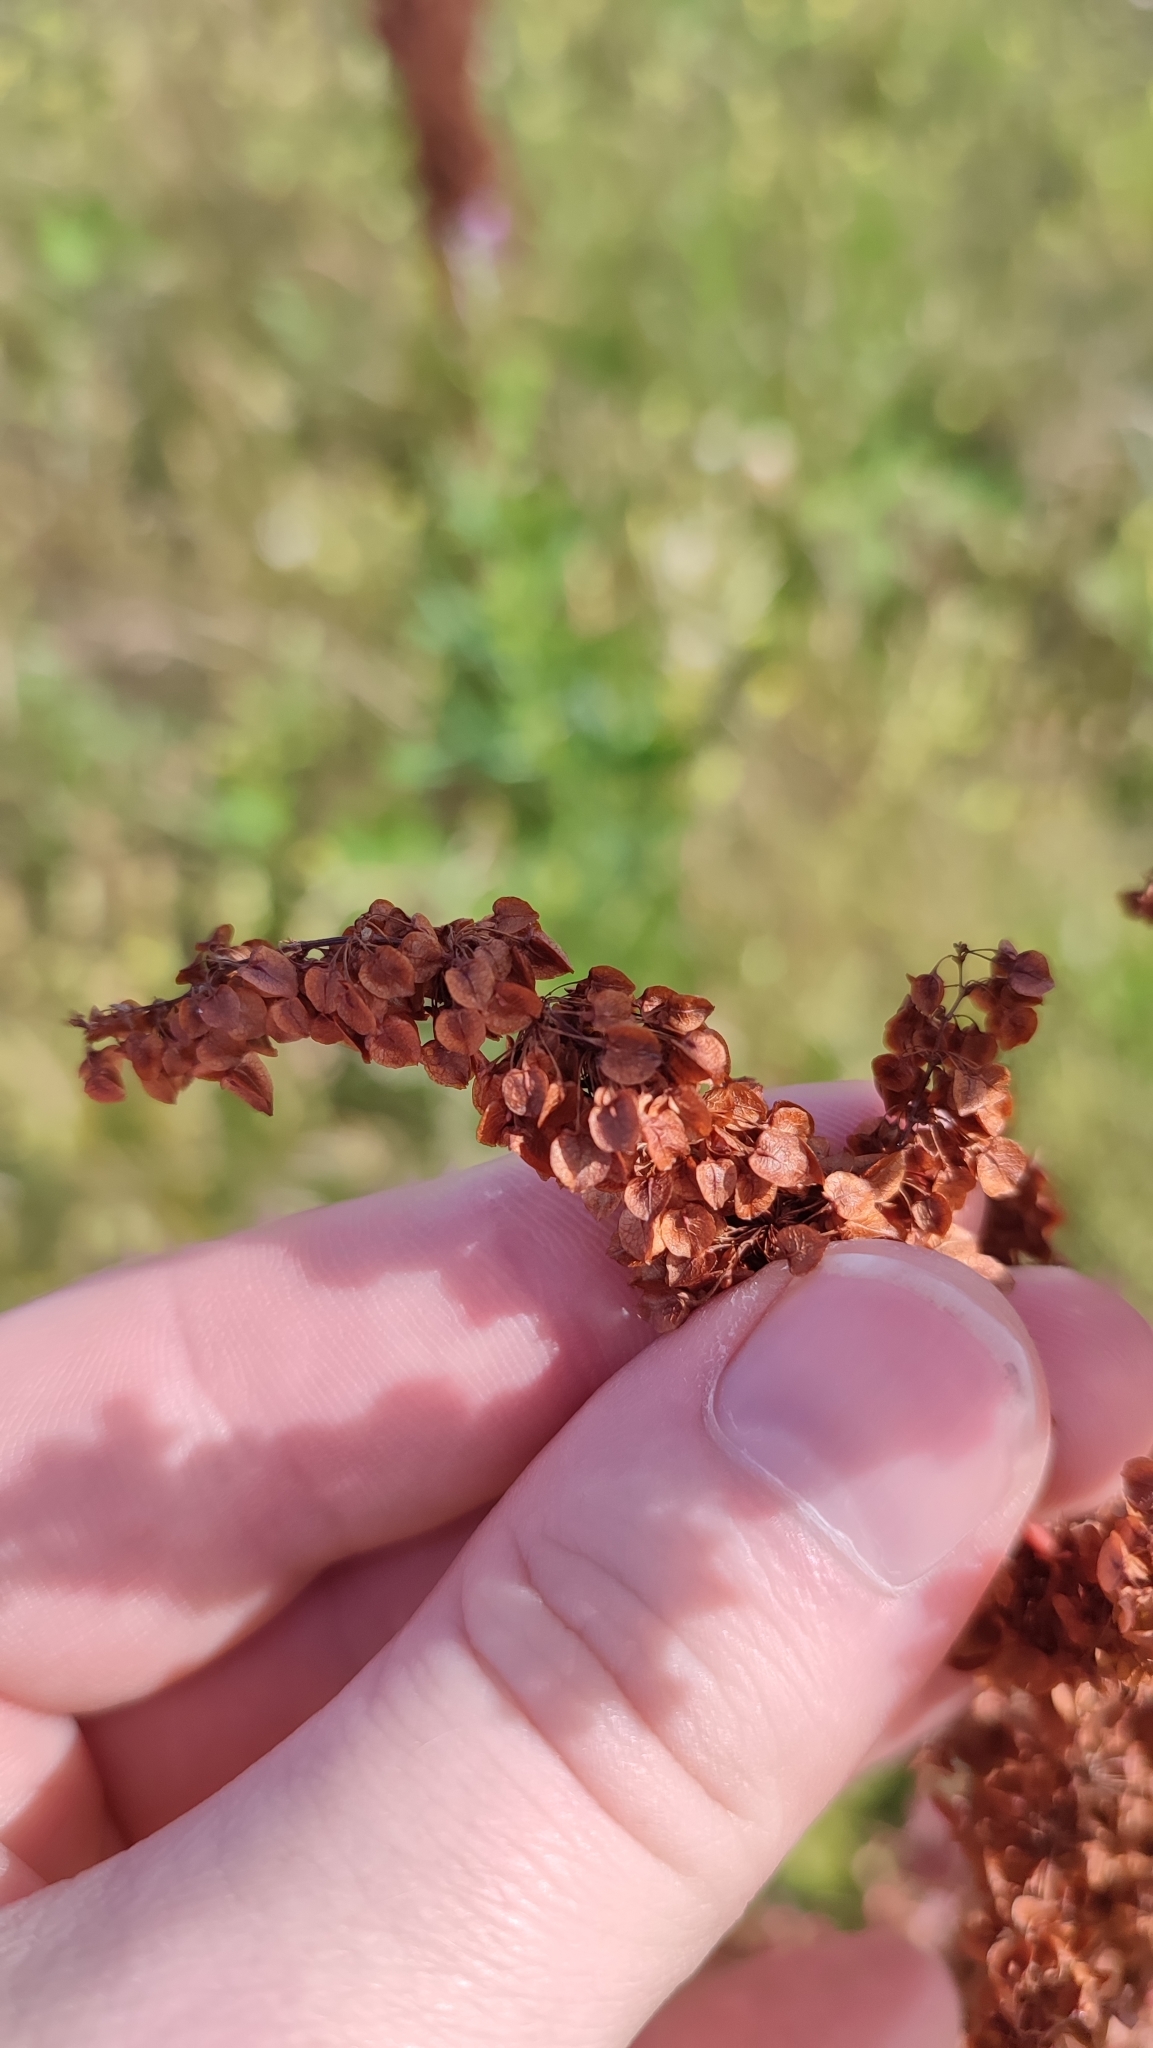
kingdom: Plantae
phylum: Tracheophyta
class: Magnoliopsida
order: Caryophyllales
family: Polygonaceae
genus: Rumex
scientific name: Rumex pseudonatronatus
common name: Field dock
